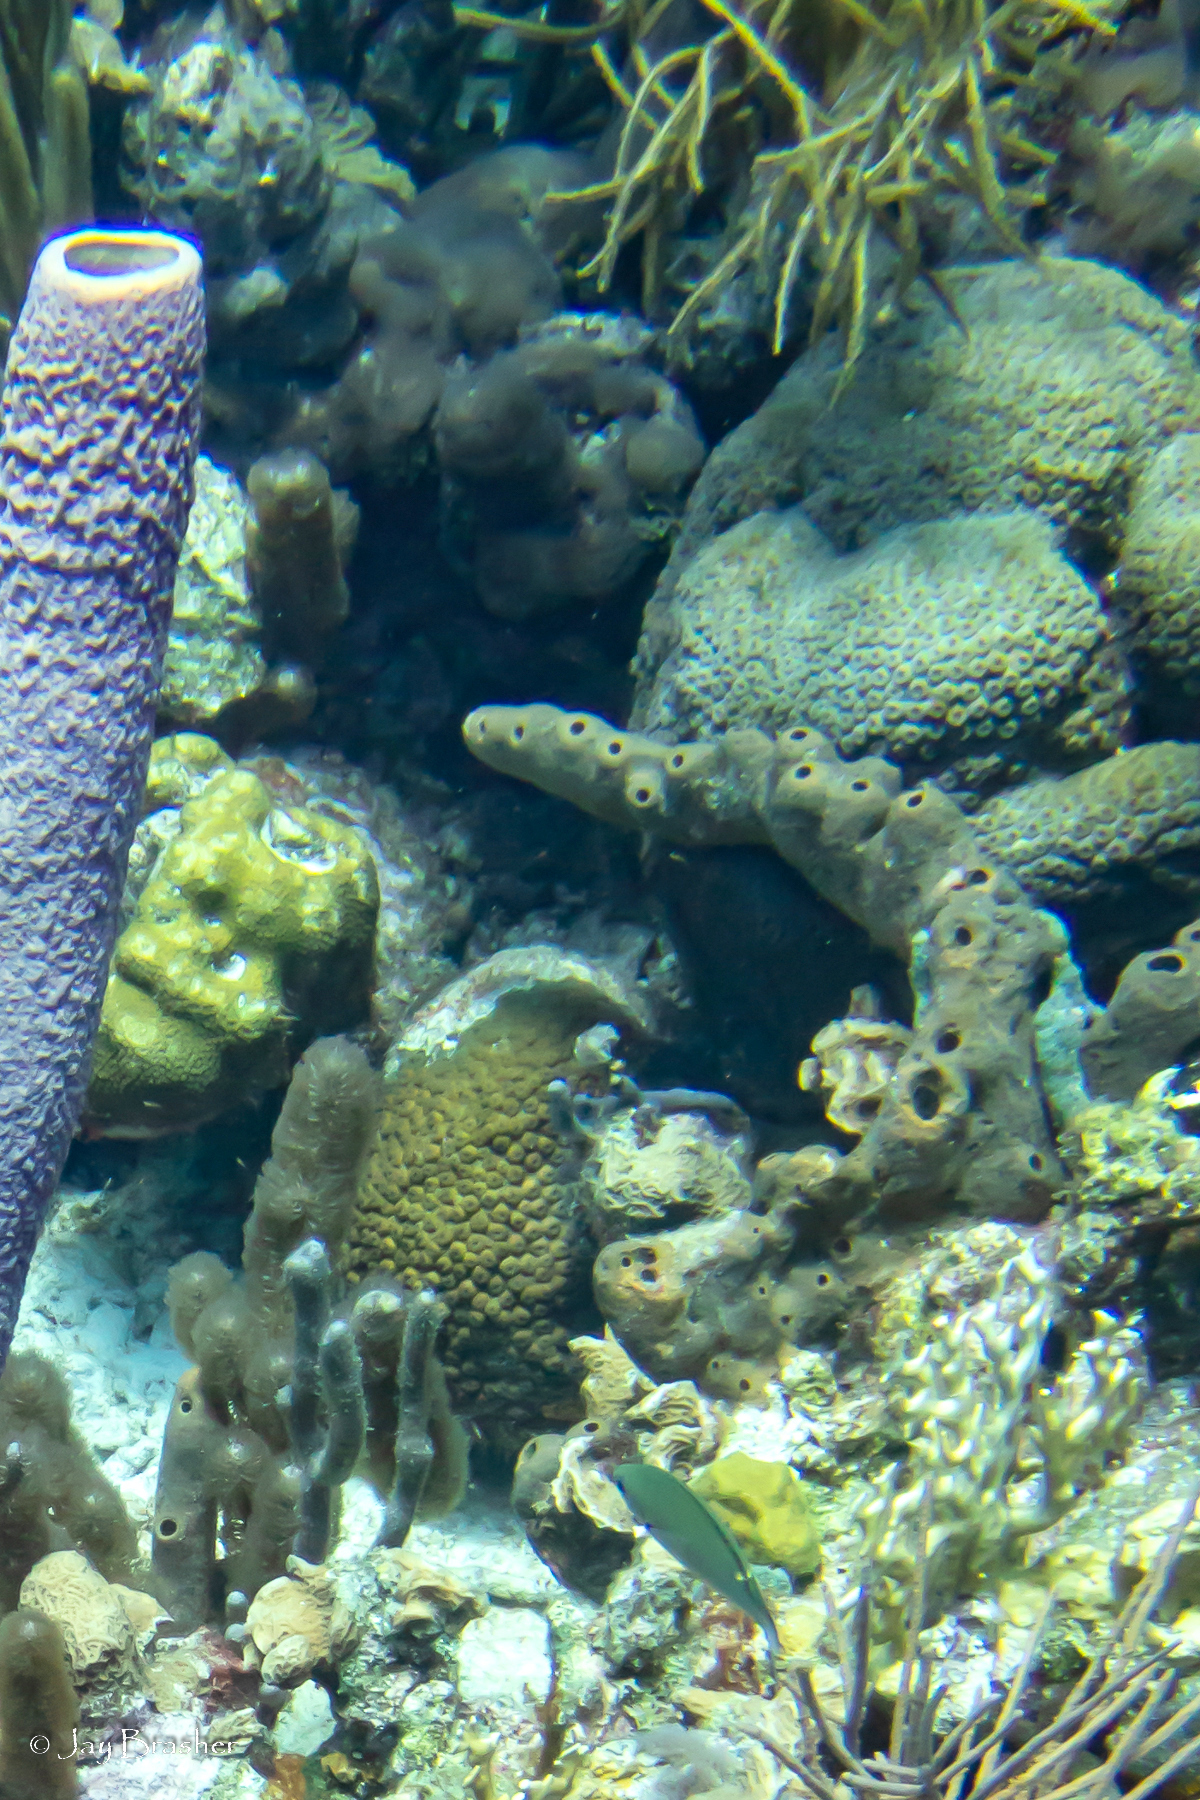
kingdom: Animalia
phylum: Chordata
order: Perciformes
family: Pomacentridae
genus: Chromis
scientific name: Chromis multilineata
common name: Brown chromis
